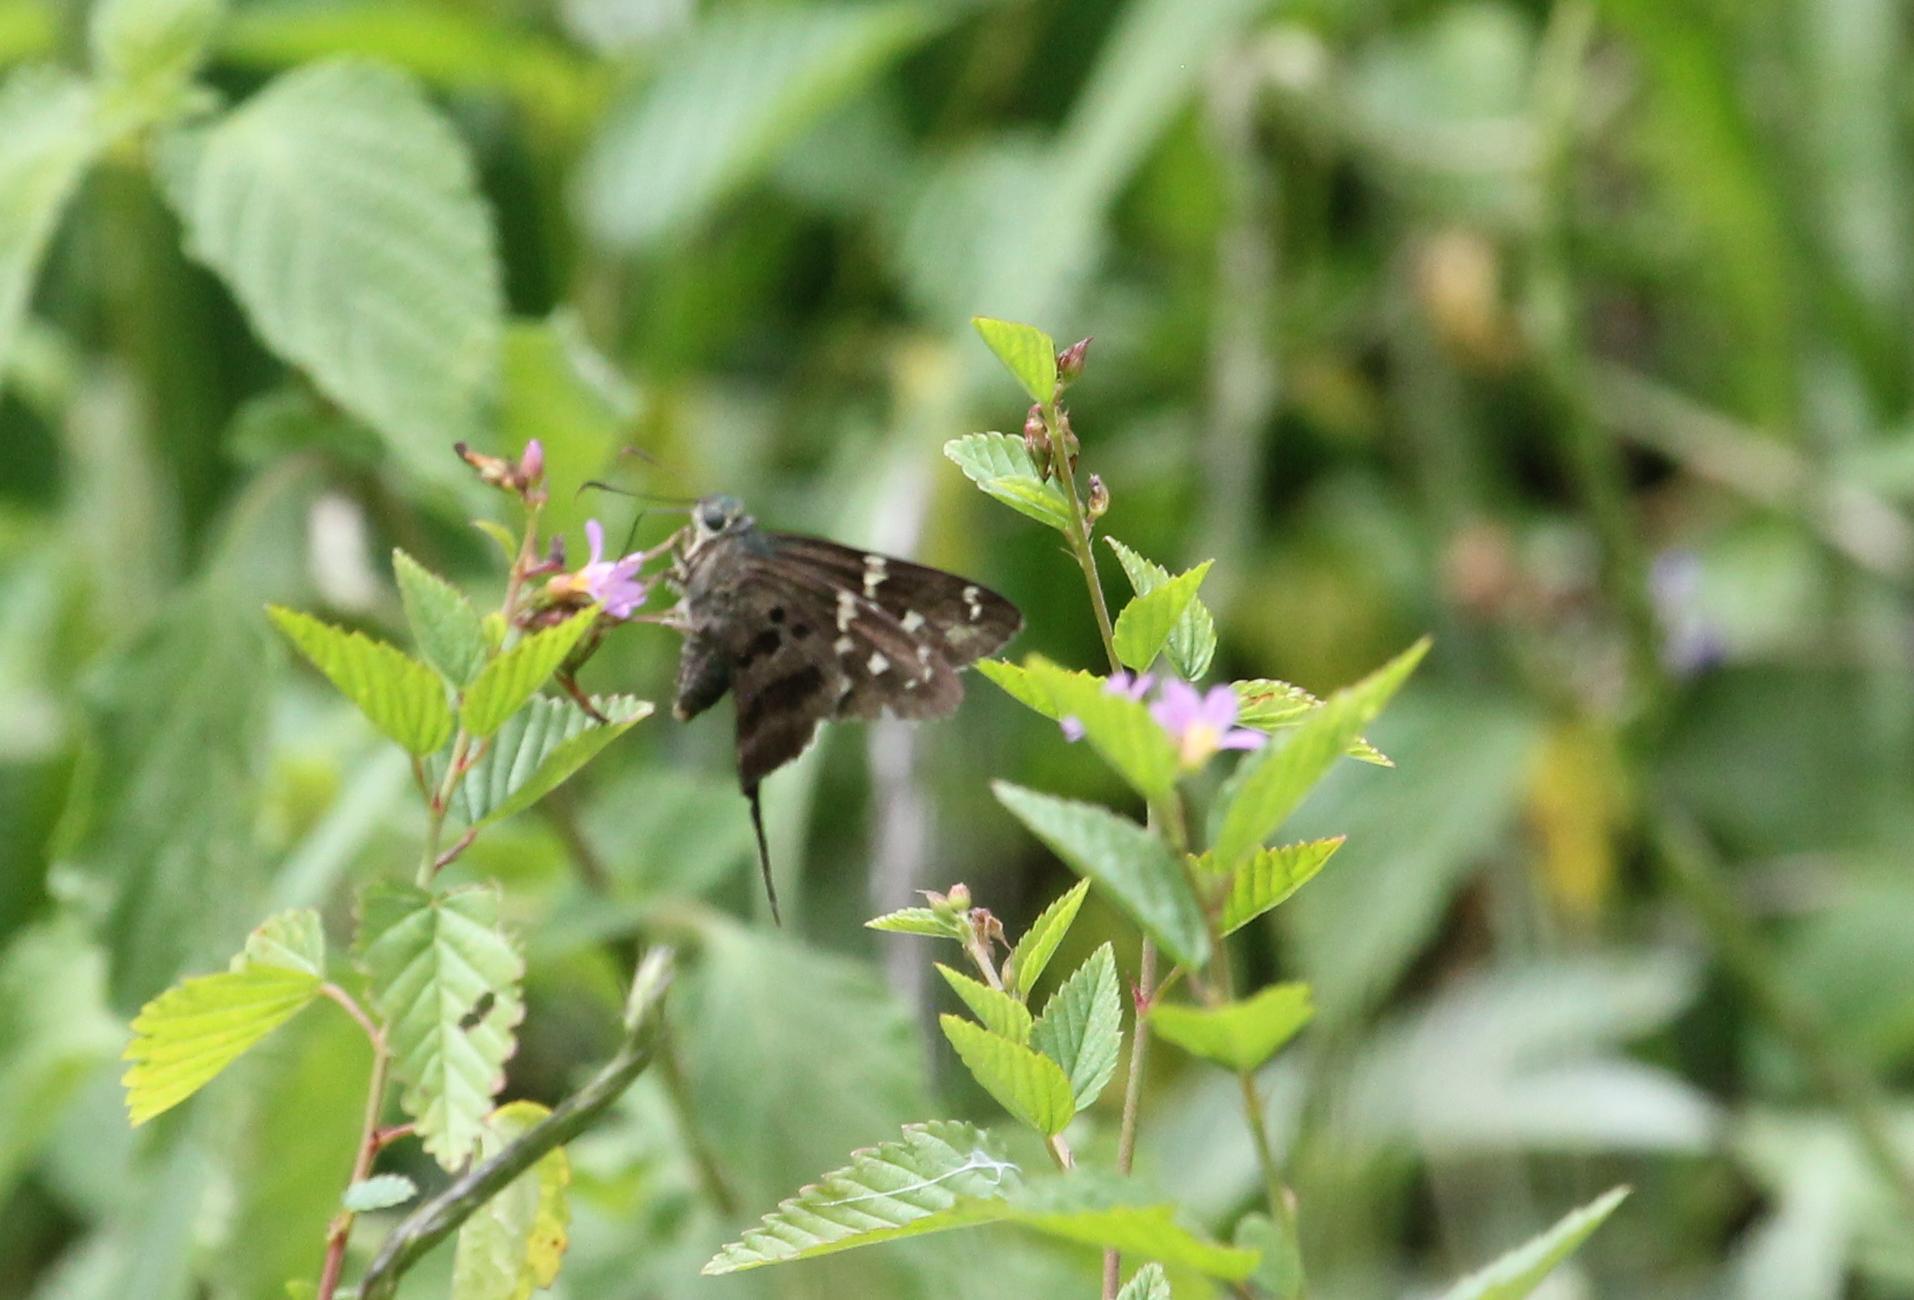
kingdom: Animalia
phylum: Arthropoda
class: Insecta
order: Lepidoptera
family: Hesperiidae
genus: Urbanus
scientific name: Urbanus proteus
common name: Long-tailed skipper
